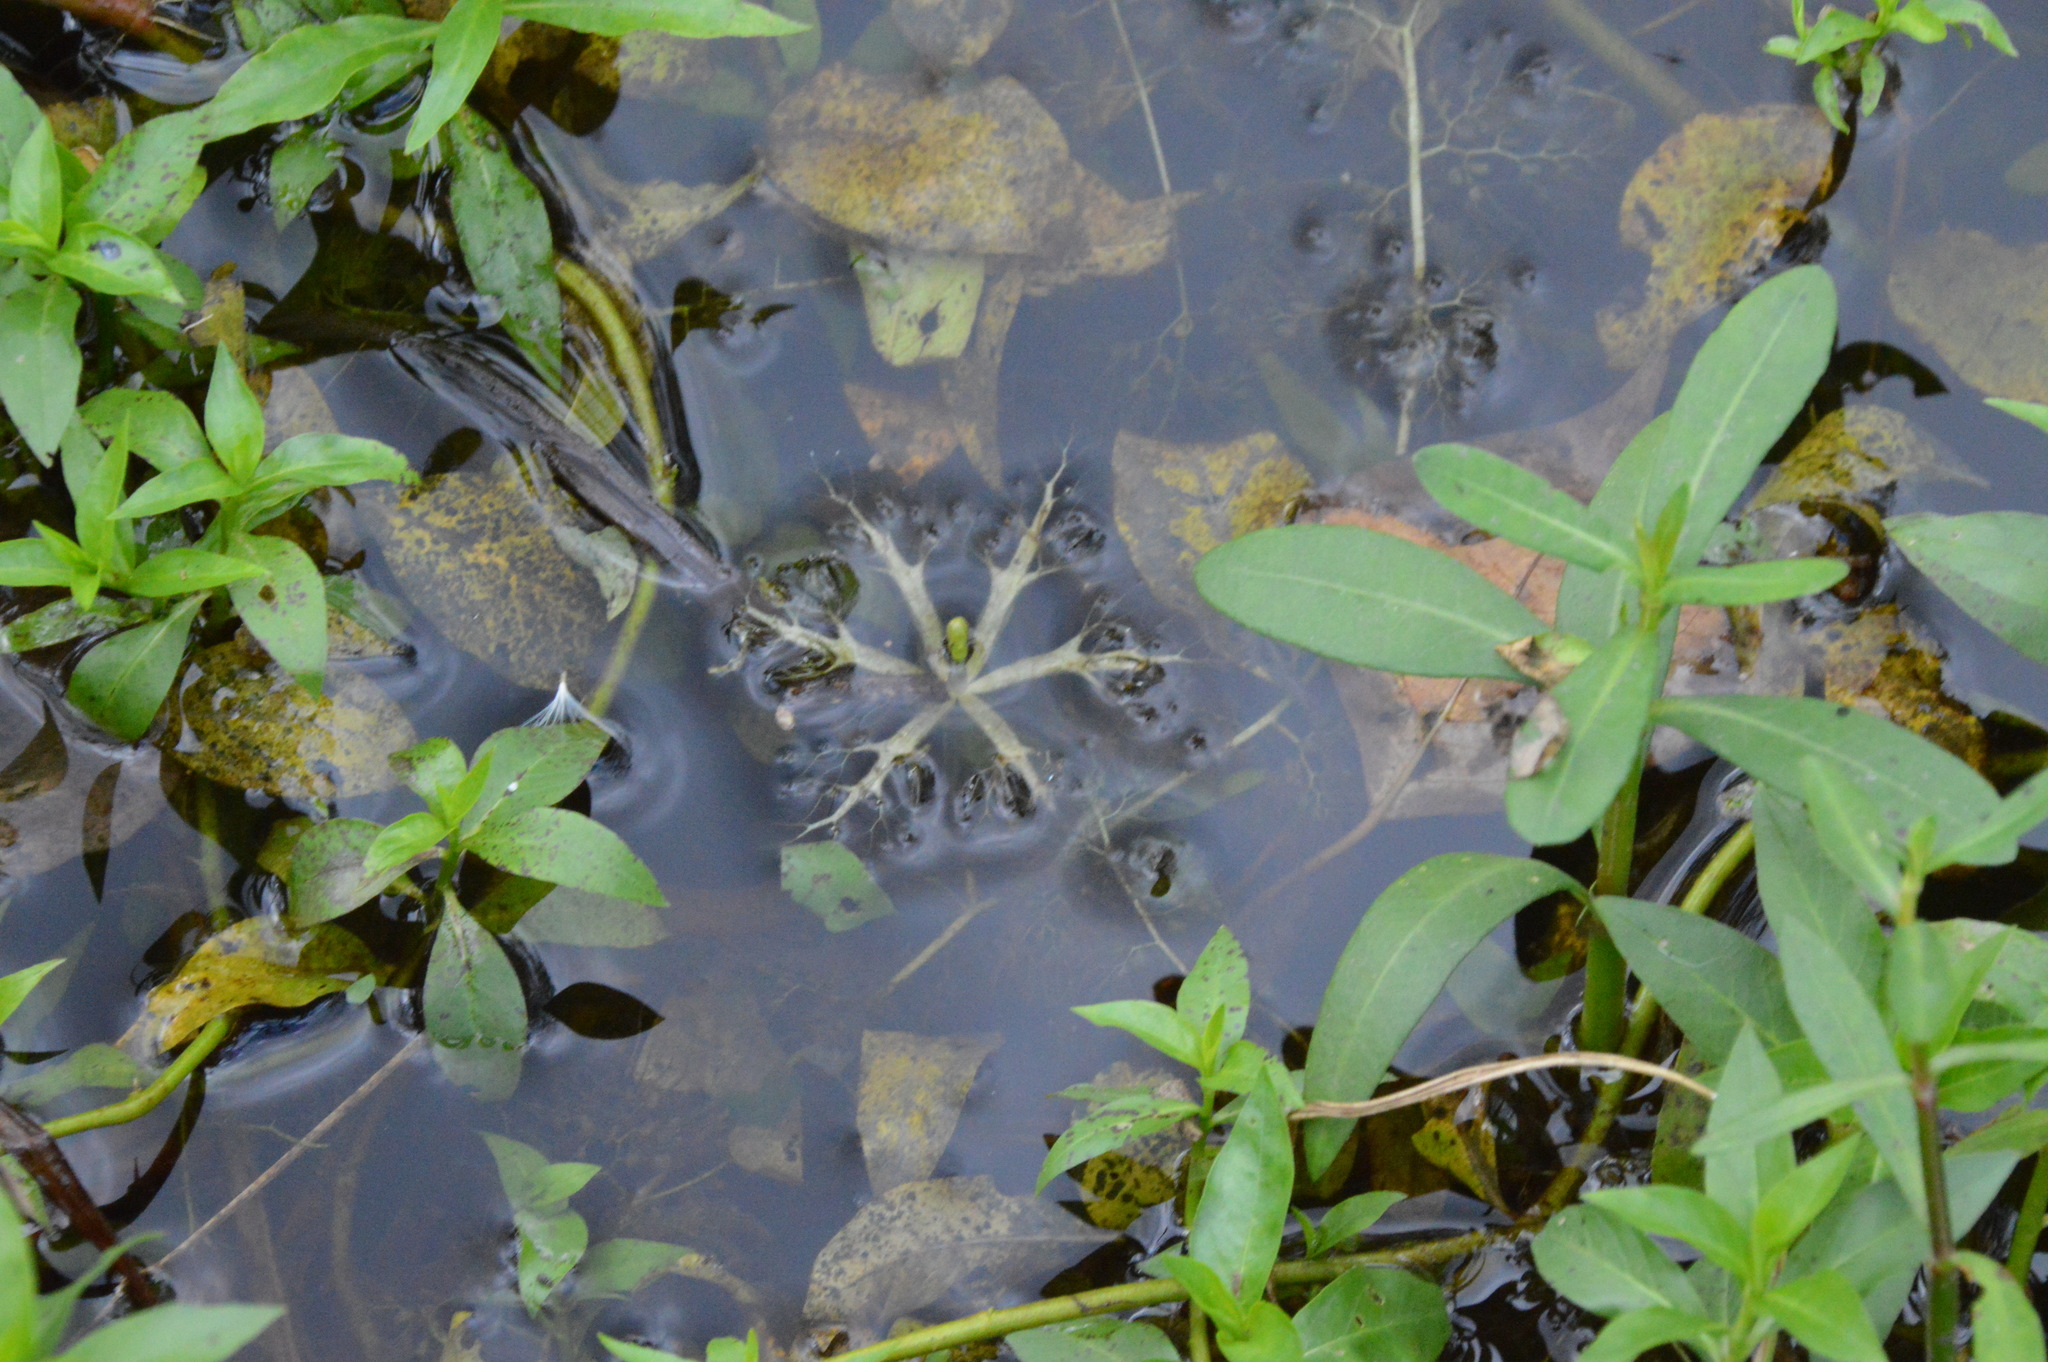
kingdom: Plantae
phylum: Tracheophyta
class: Magnoliopsida
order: Lamiales
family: Lentibulariaceae
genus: Utricularia
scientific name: Utricularia radiata
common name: Floating bladderwort
